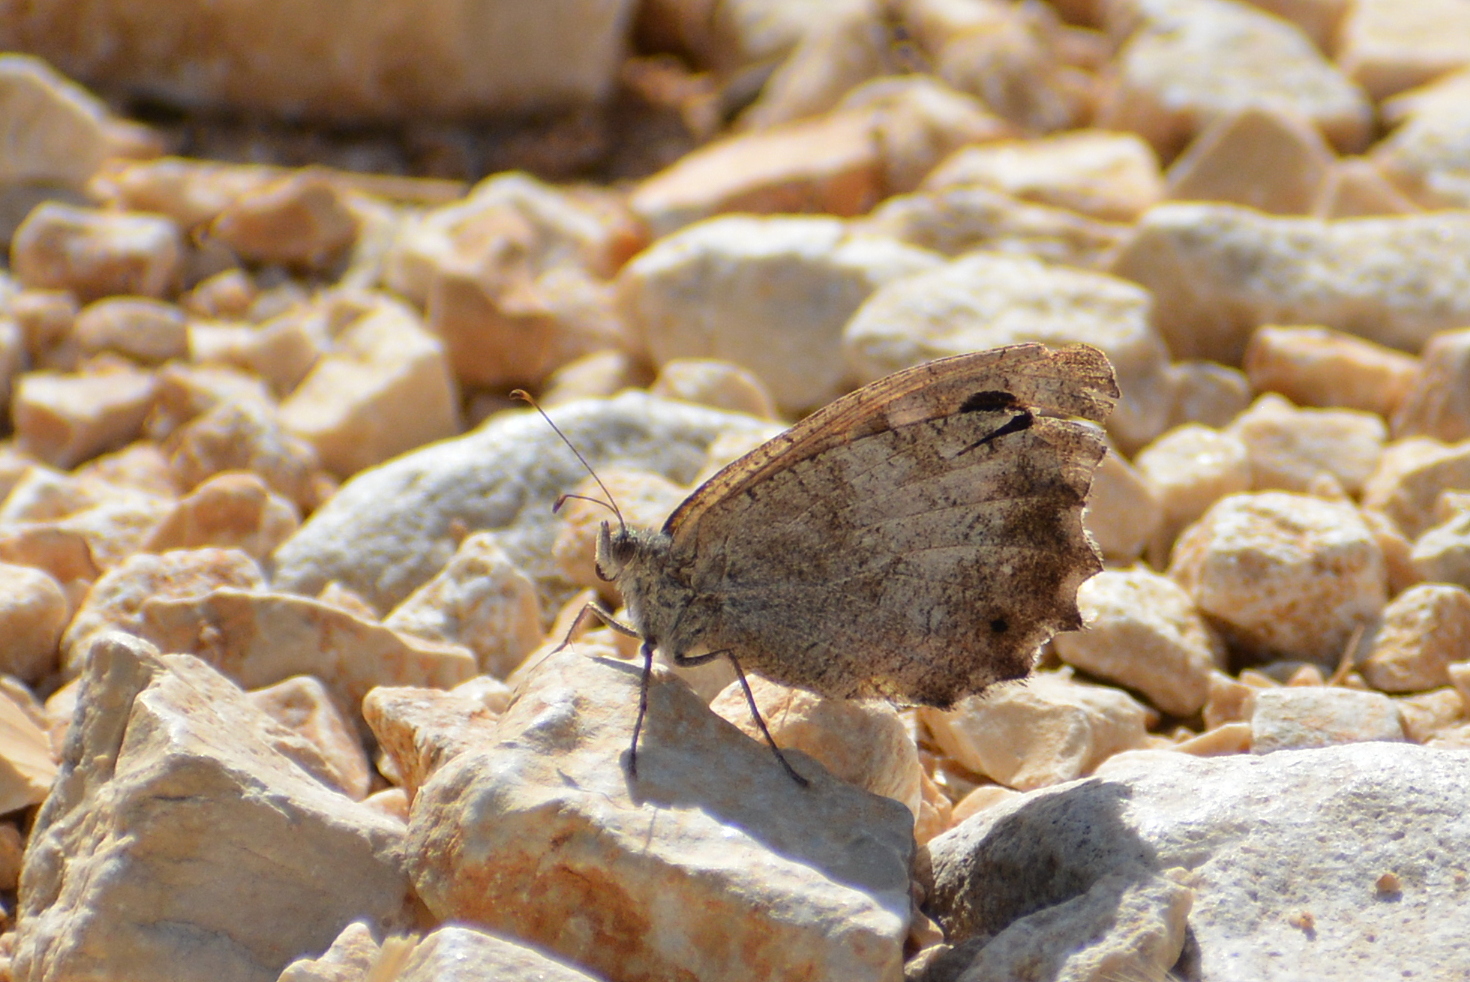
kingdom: Animalia
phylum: Arthropoda
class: Insecta
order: Lepidoptera
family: Nymphalidae
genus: Hipparchia
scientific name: Hipparchia statilinus
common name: Tree grayling
